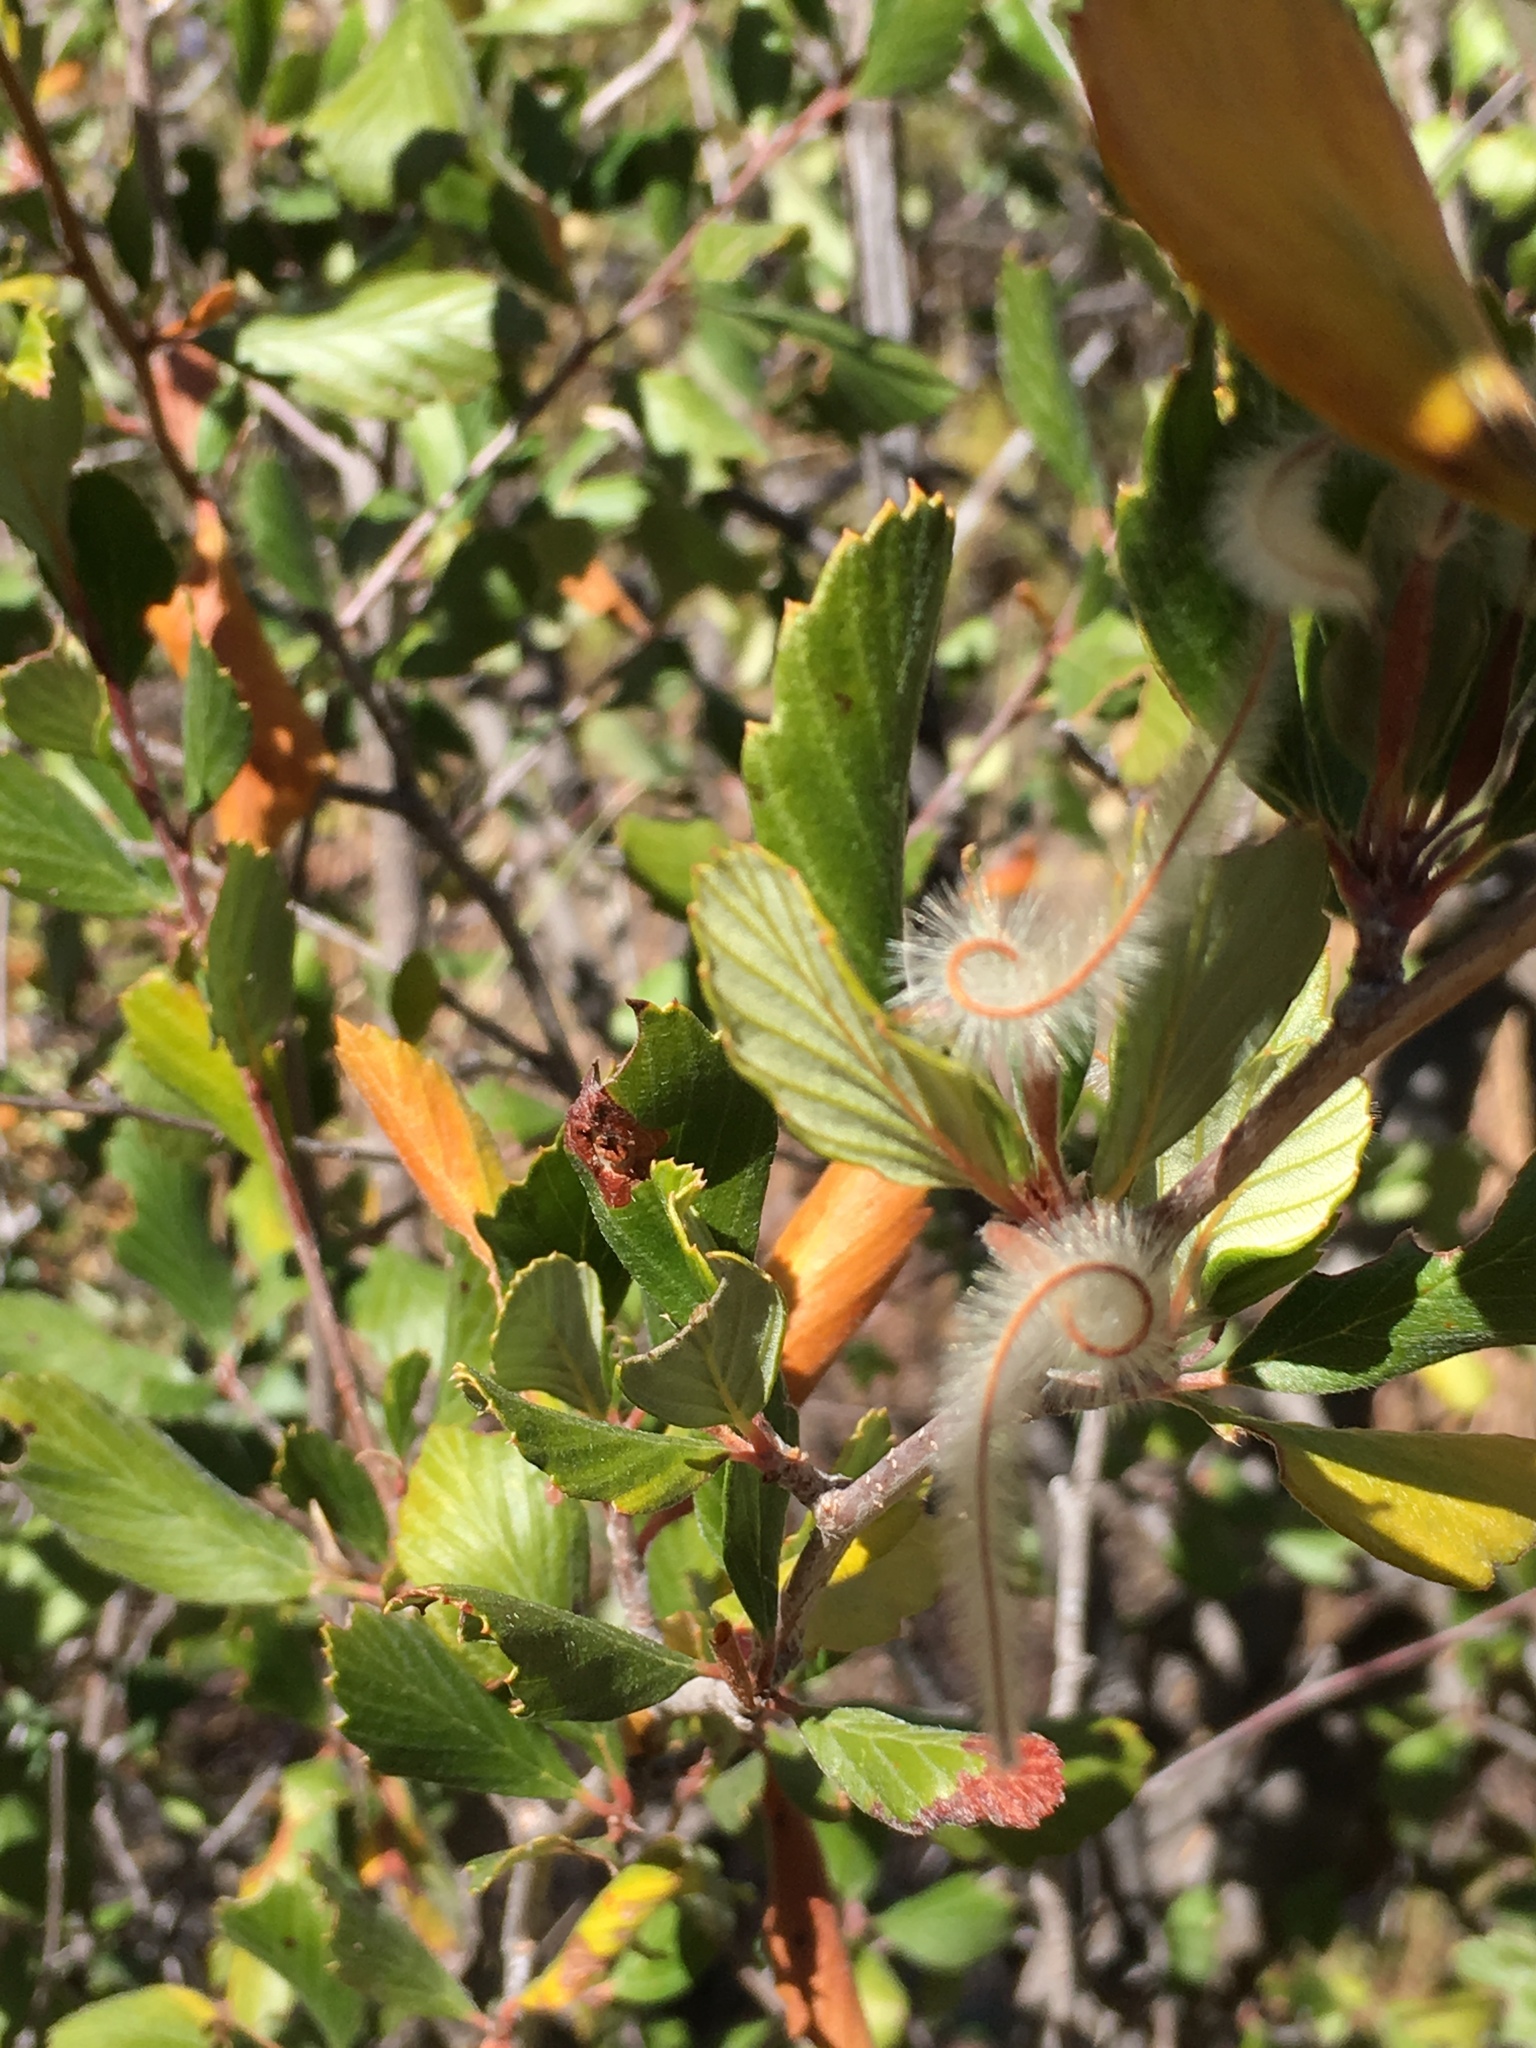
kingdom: Plantae
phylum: Tracheophyta
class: Magnoliopsida
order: Rosales
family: Rosaceae
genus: Cercocarpus
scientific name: Cercocarpus montanus
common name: Alder-leaf cercocarpus
